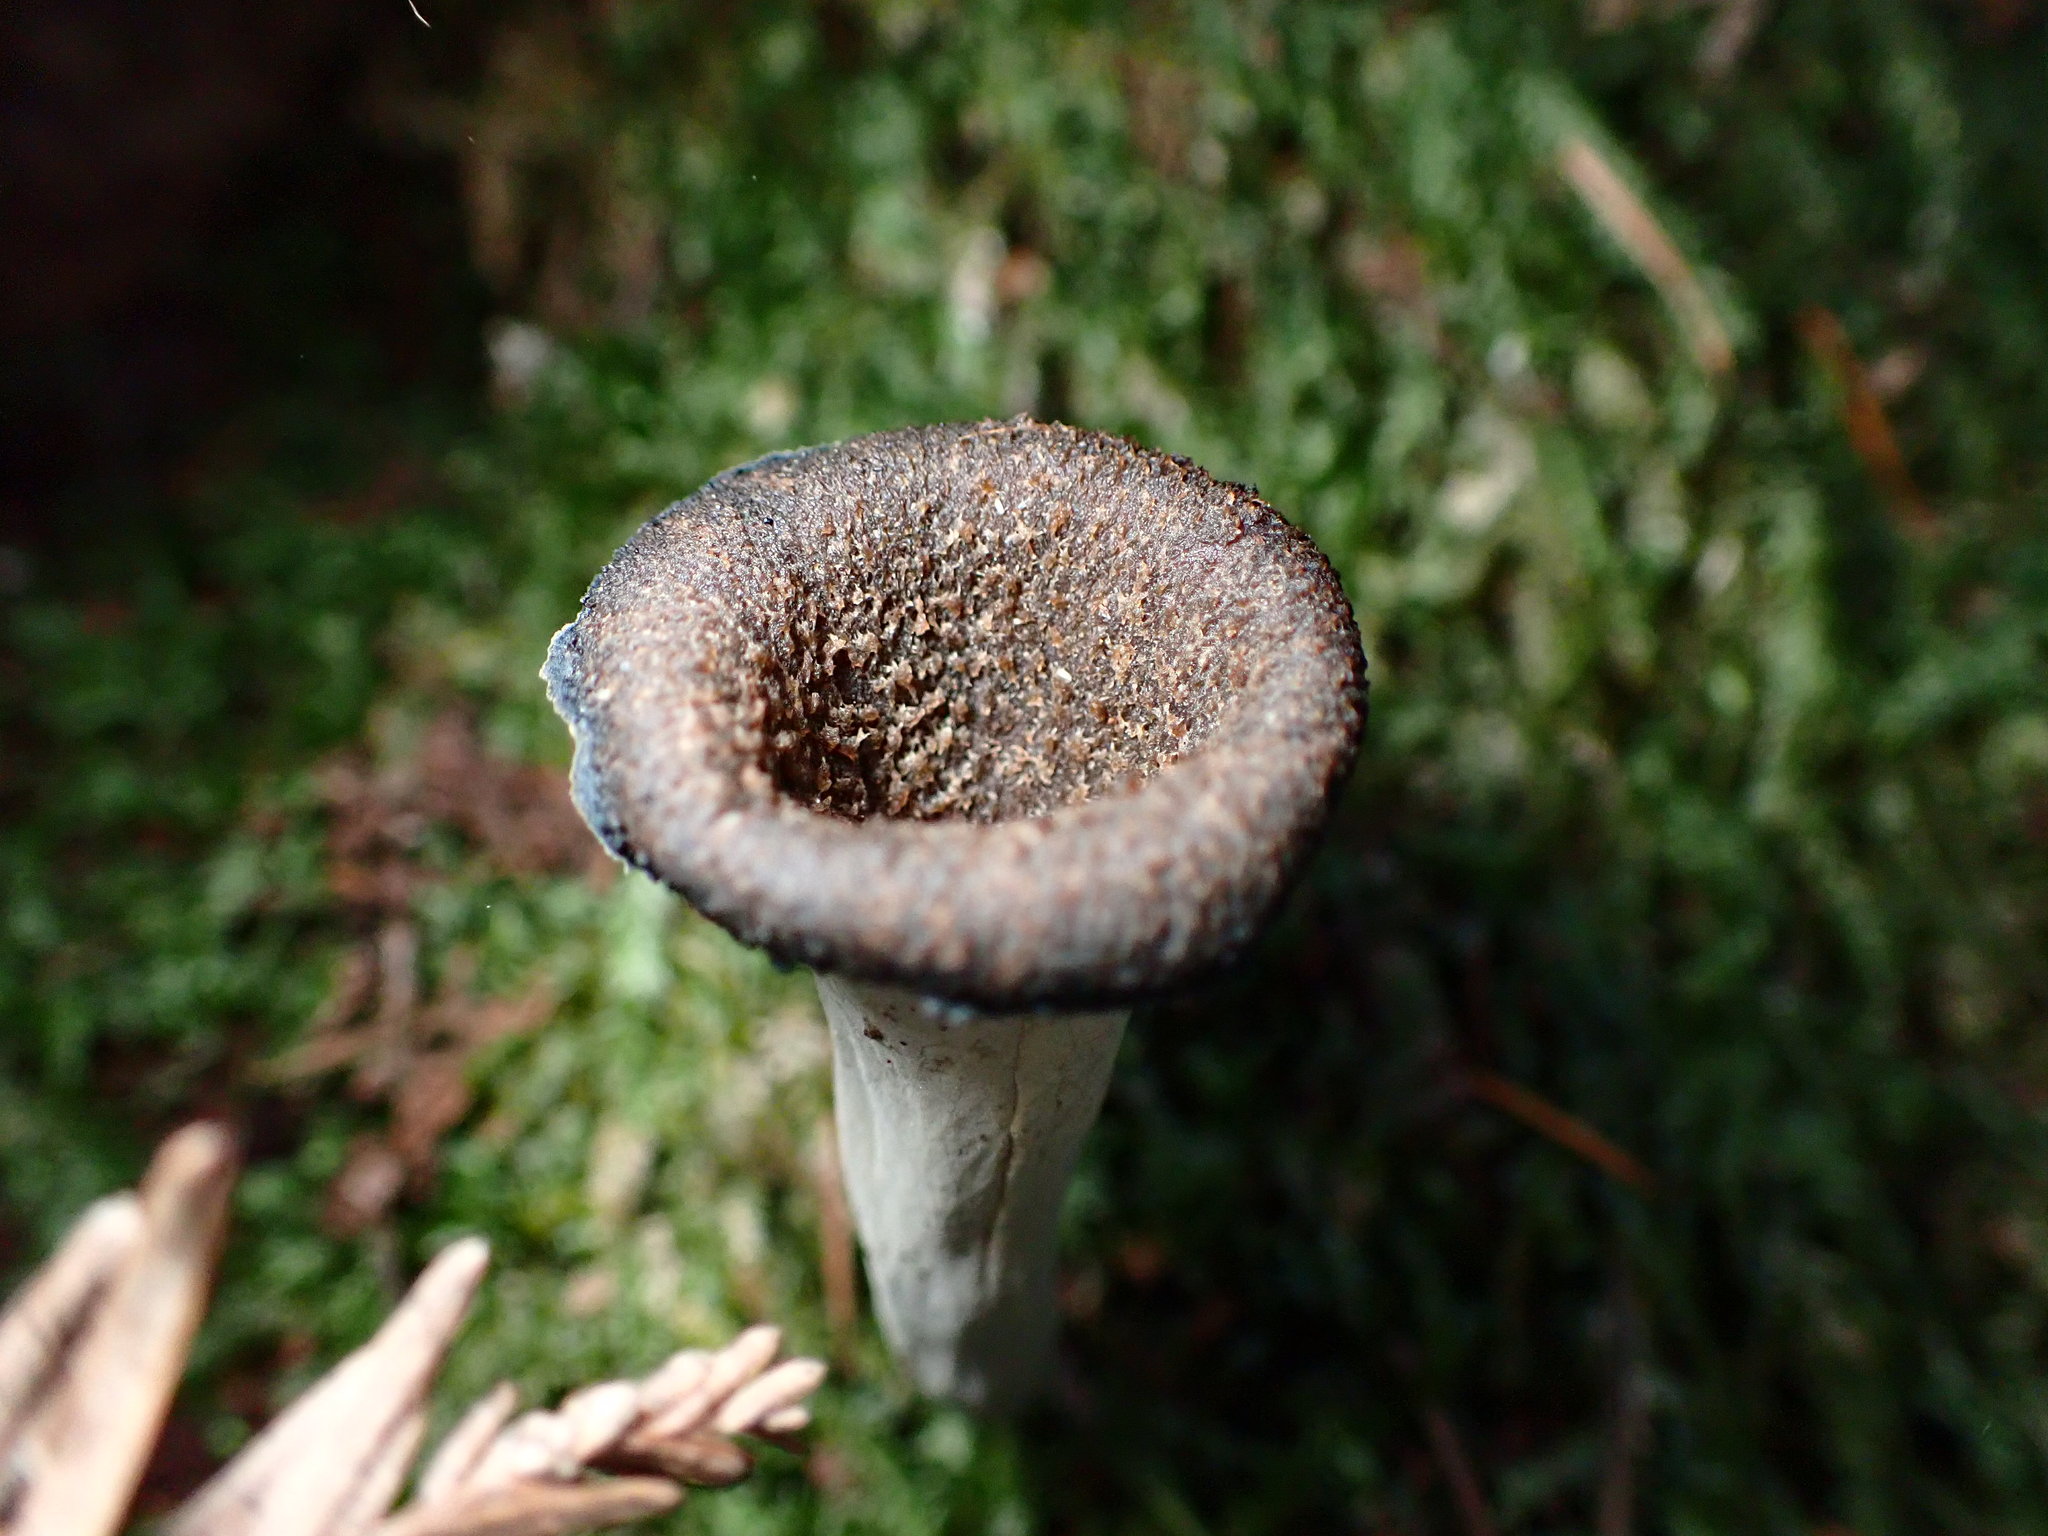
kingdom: Fungi
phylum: Basidiomycota
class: Agaricomycetes
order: Cantharellales
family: Hydnaceae
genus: Craterellus
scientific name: Craterellus calicornucopioides
